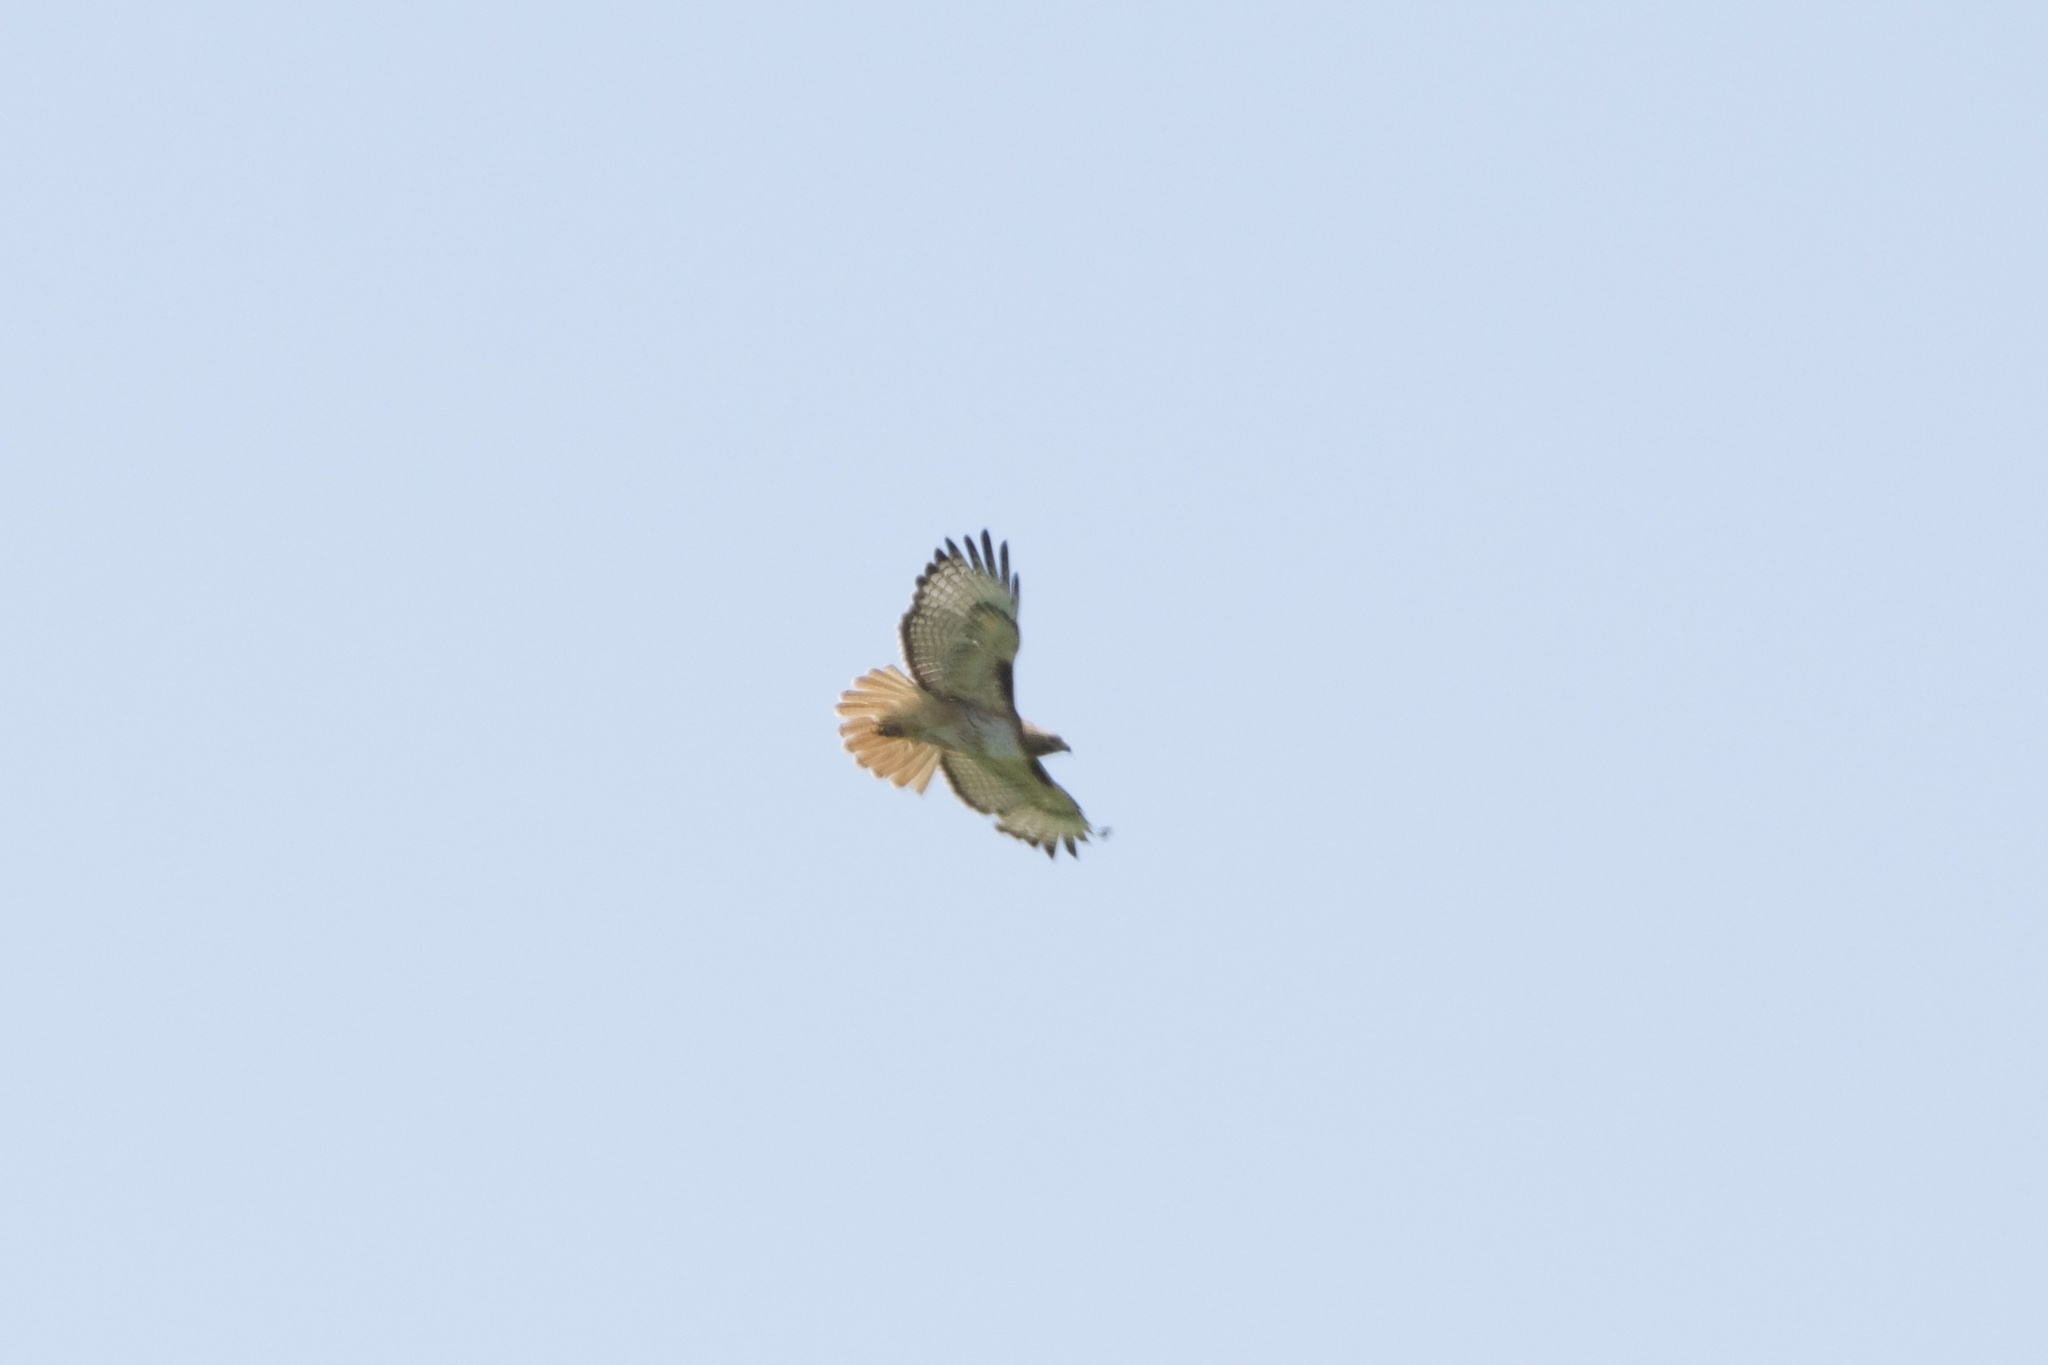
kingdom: Animalia
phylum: Chordata
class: Aves
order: Accipitriformes
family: Accipitridae
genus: Buteo
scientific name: Buteo jamaicensis
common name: Red-tailed hawk
